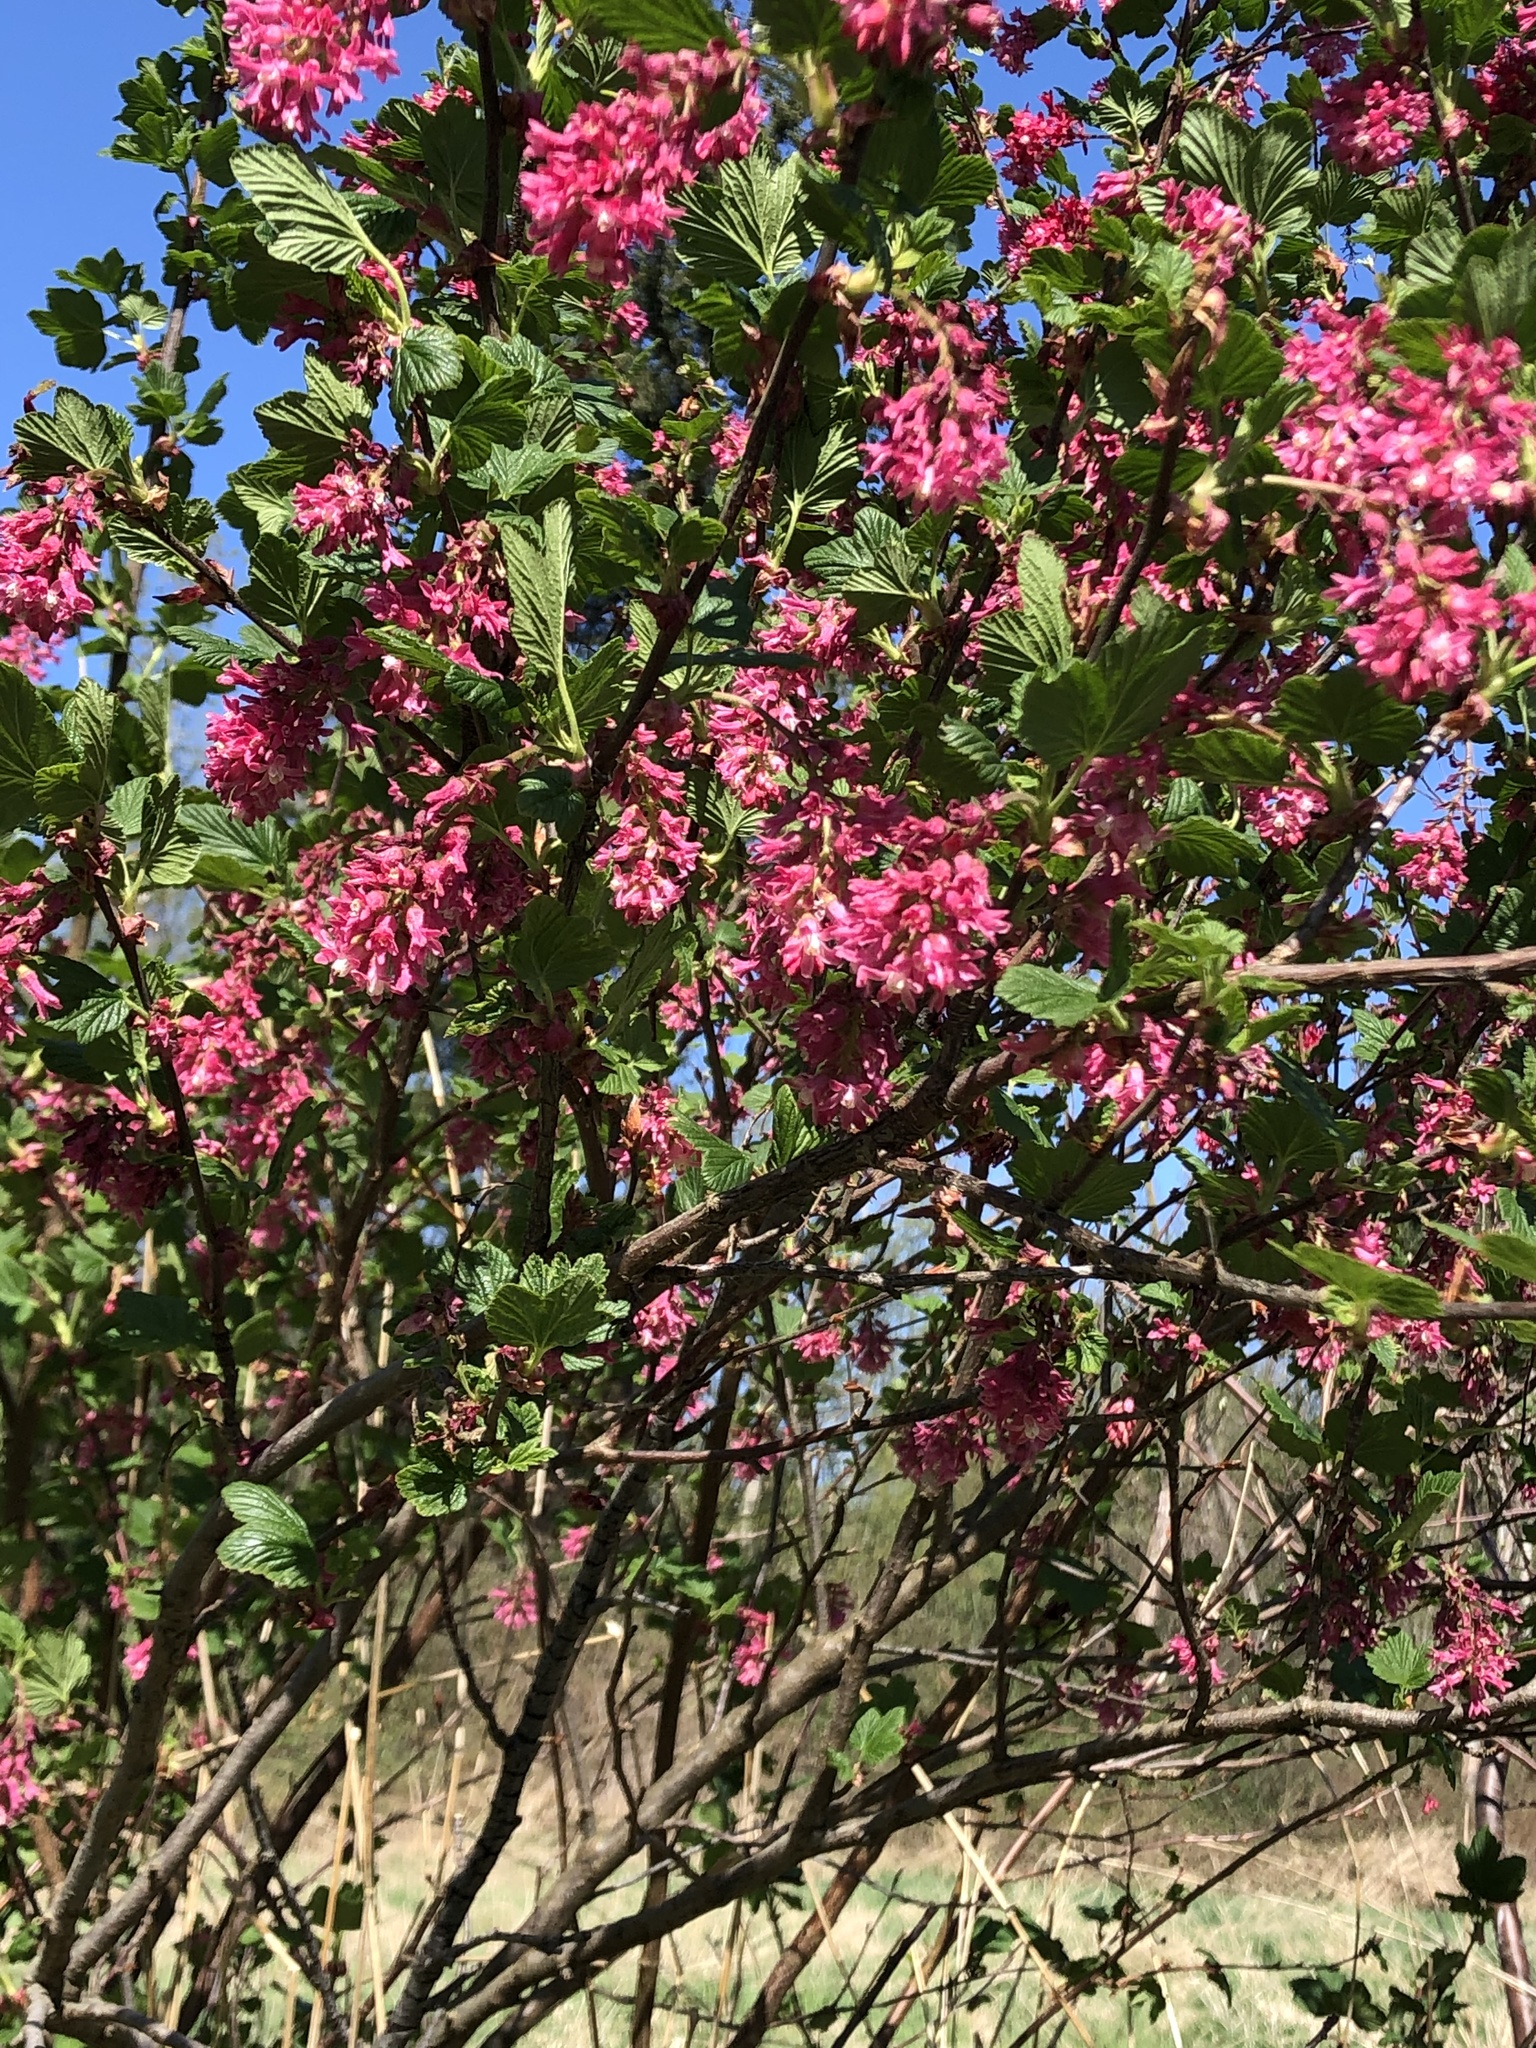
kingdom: Plantae
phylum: Tracheophyta
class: Magnoliopsida
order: Saxifragales
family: Grossulariaceae
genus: Ribes
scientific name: Ribes sanguineum
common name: Flowering currant
